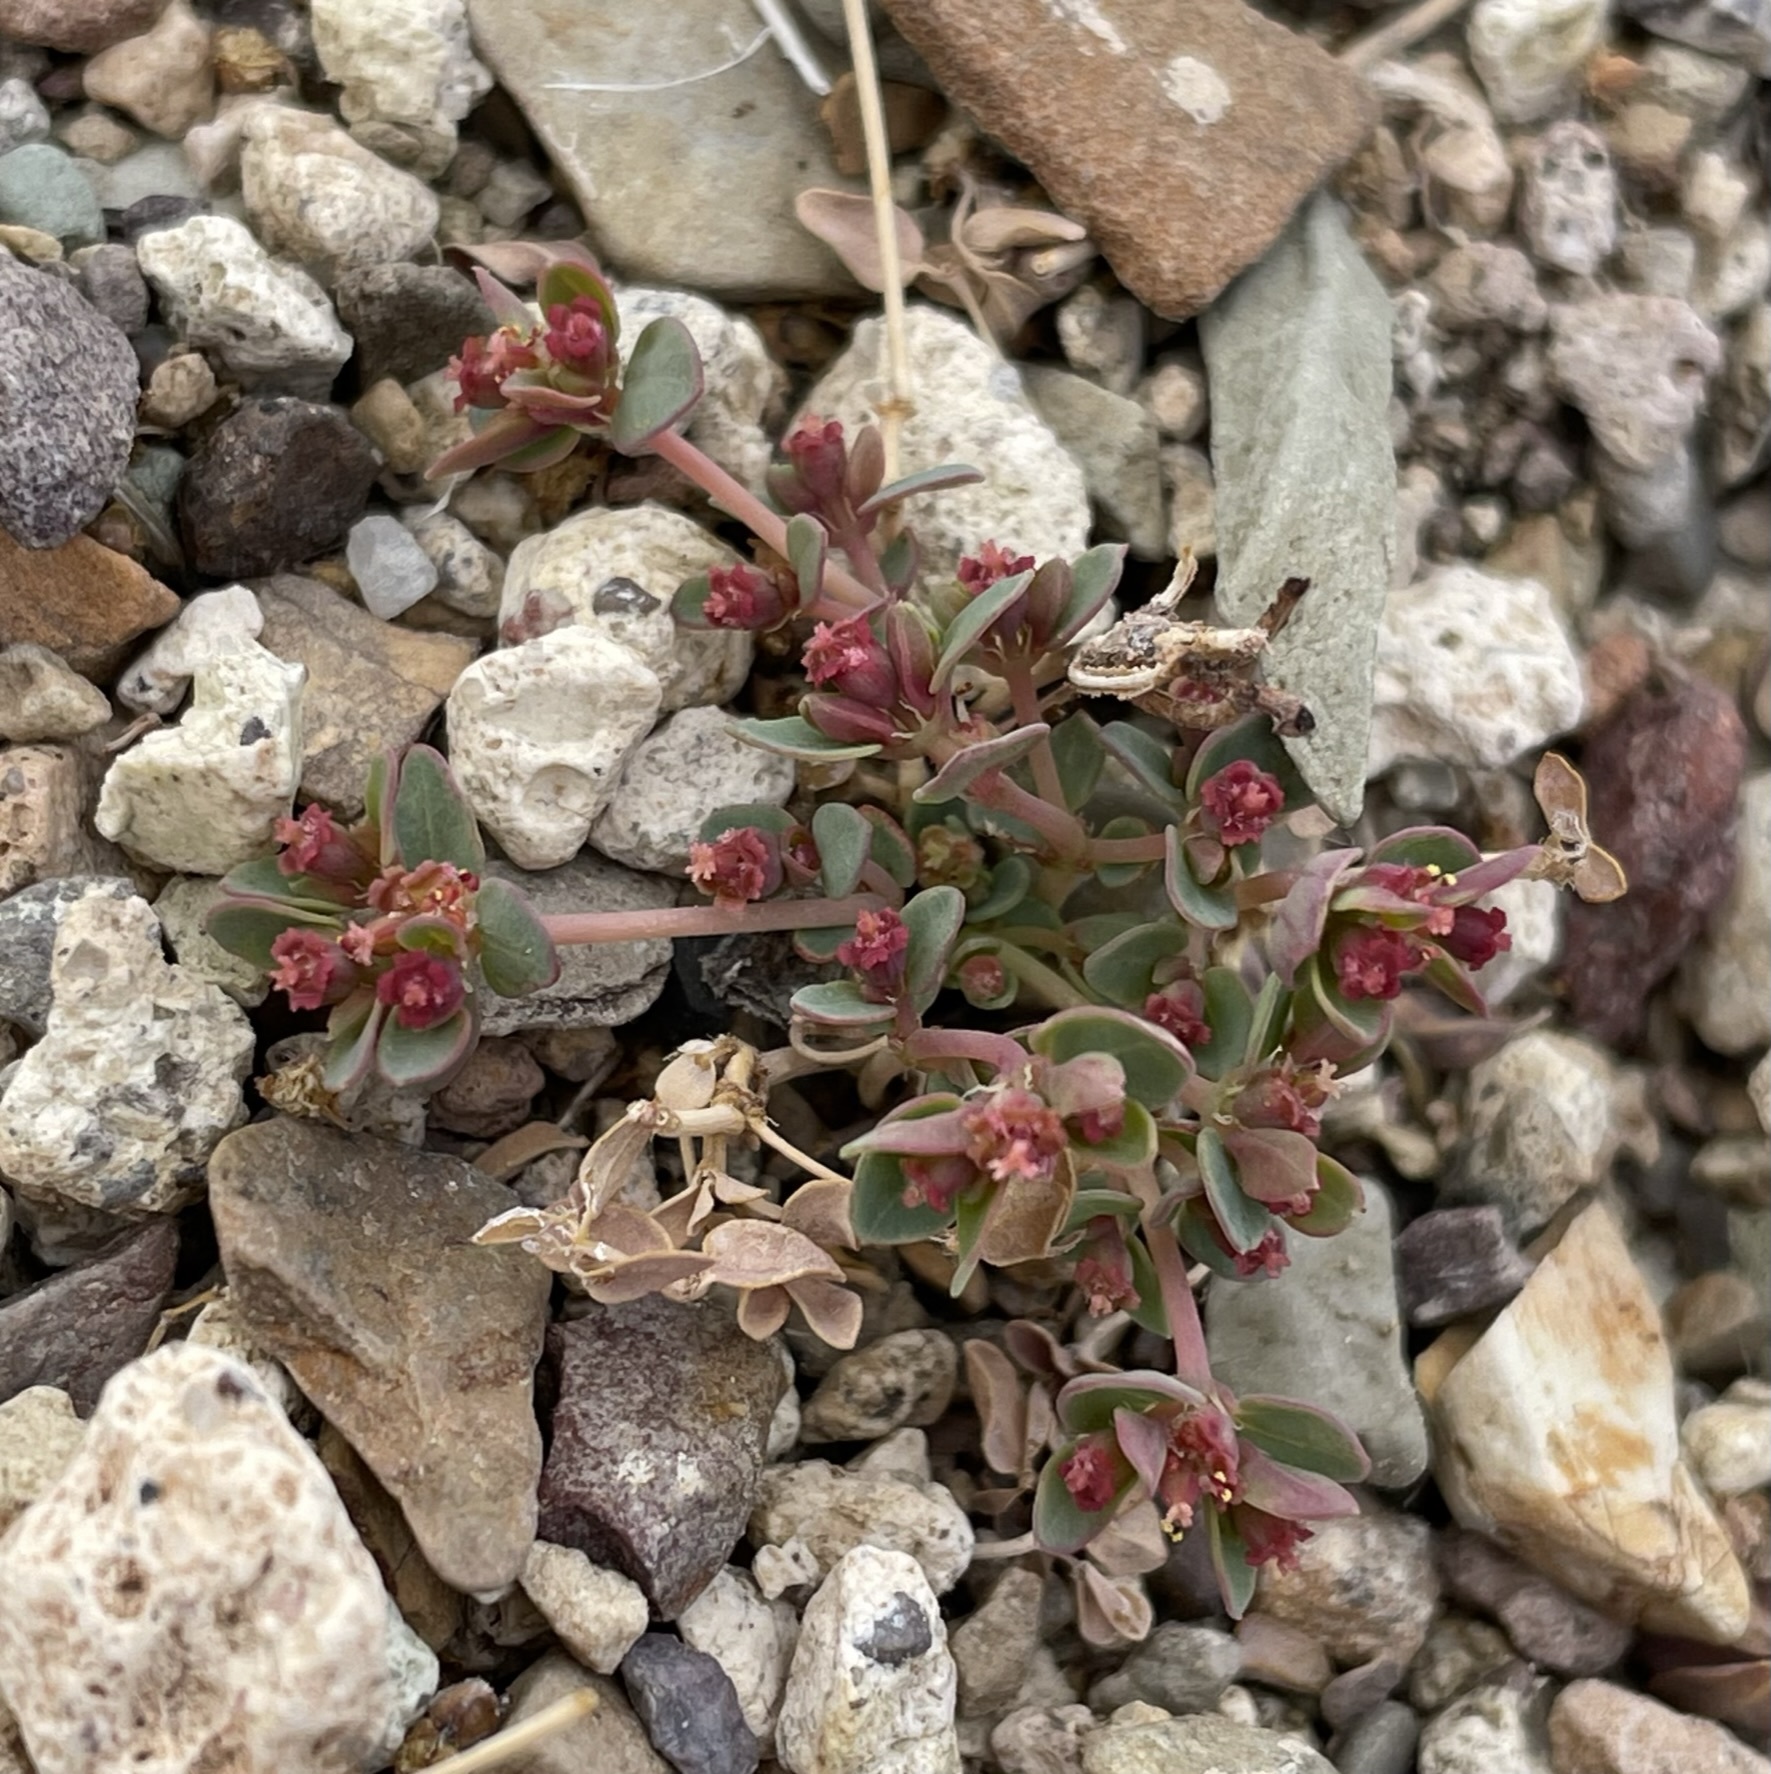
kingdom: Plantae
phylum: Tracheophyta
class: Magnoliopsida
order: Malpighiales
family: Euphorbiaceae
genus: Euphorbia
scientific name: Euphorbia fendleri
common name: Fendler's euphorbia
